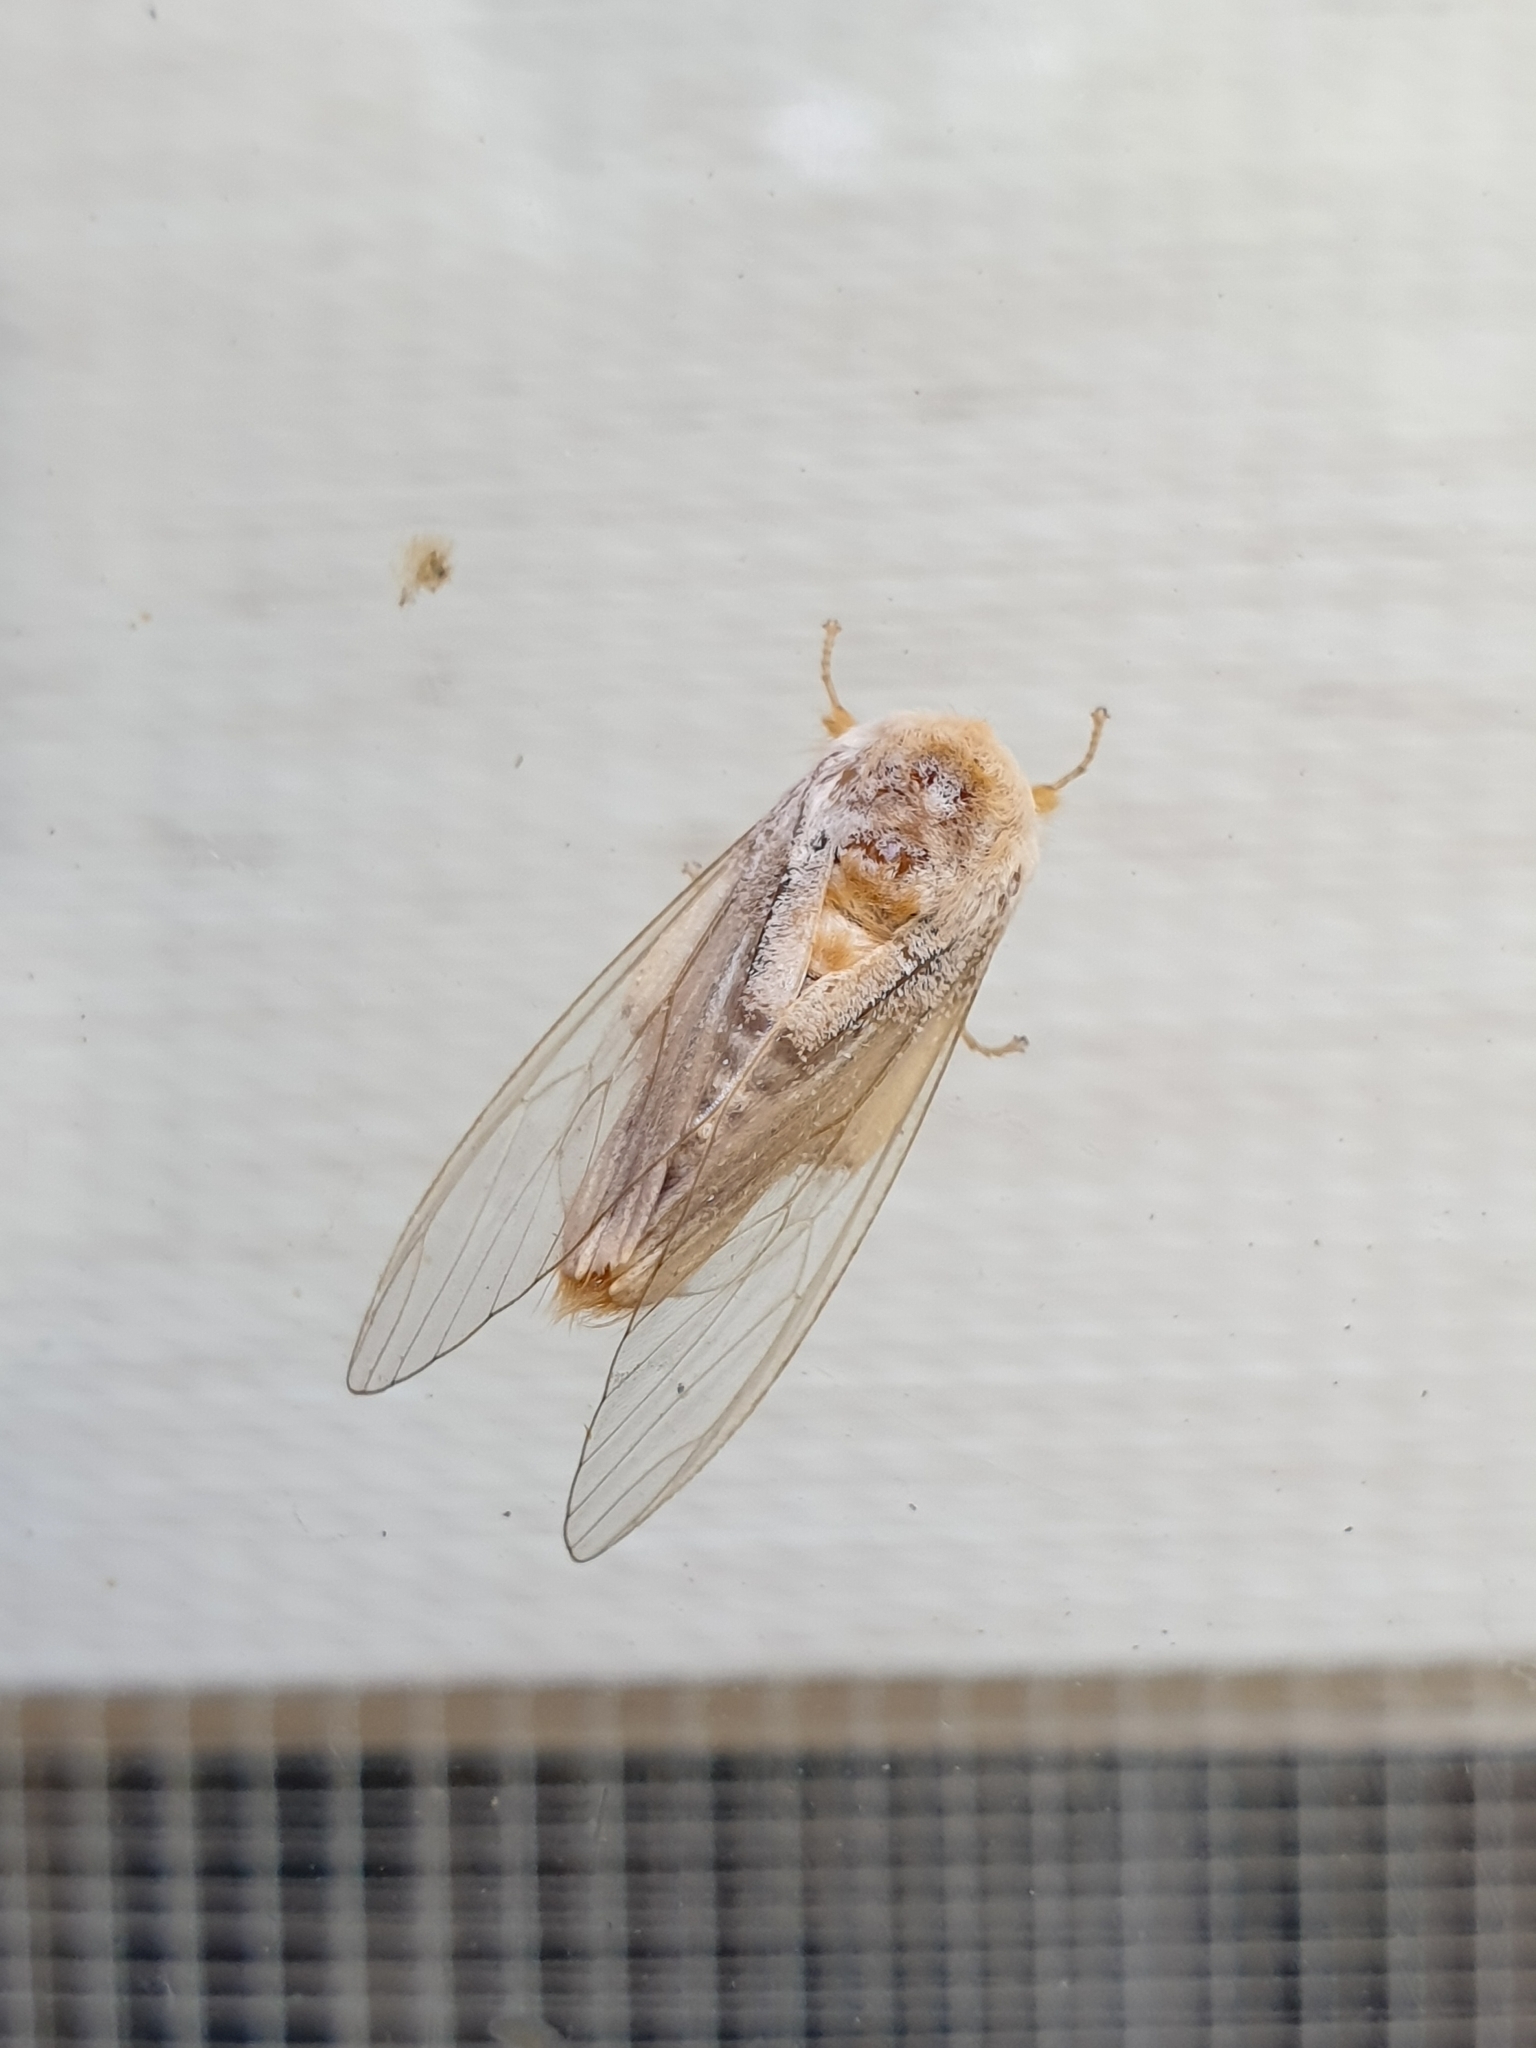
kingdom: Animalia
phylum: Arthropoda
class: Insecta
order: Lepidoptera
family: Erebidae
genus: Perina
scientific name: Perina nuda
